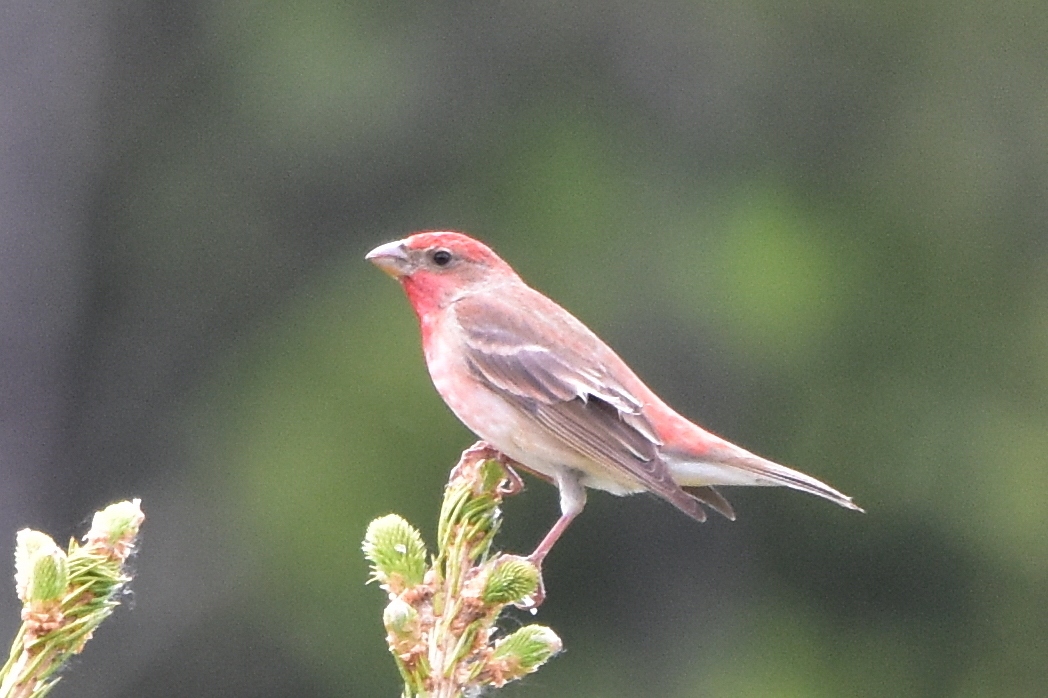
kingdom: Animalia
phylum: Chordata
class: Aves
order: Passeriformes
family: Fringillidae
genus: Carpodacus
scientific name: Carpodacus erythrinus
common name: Common rosefinch
